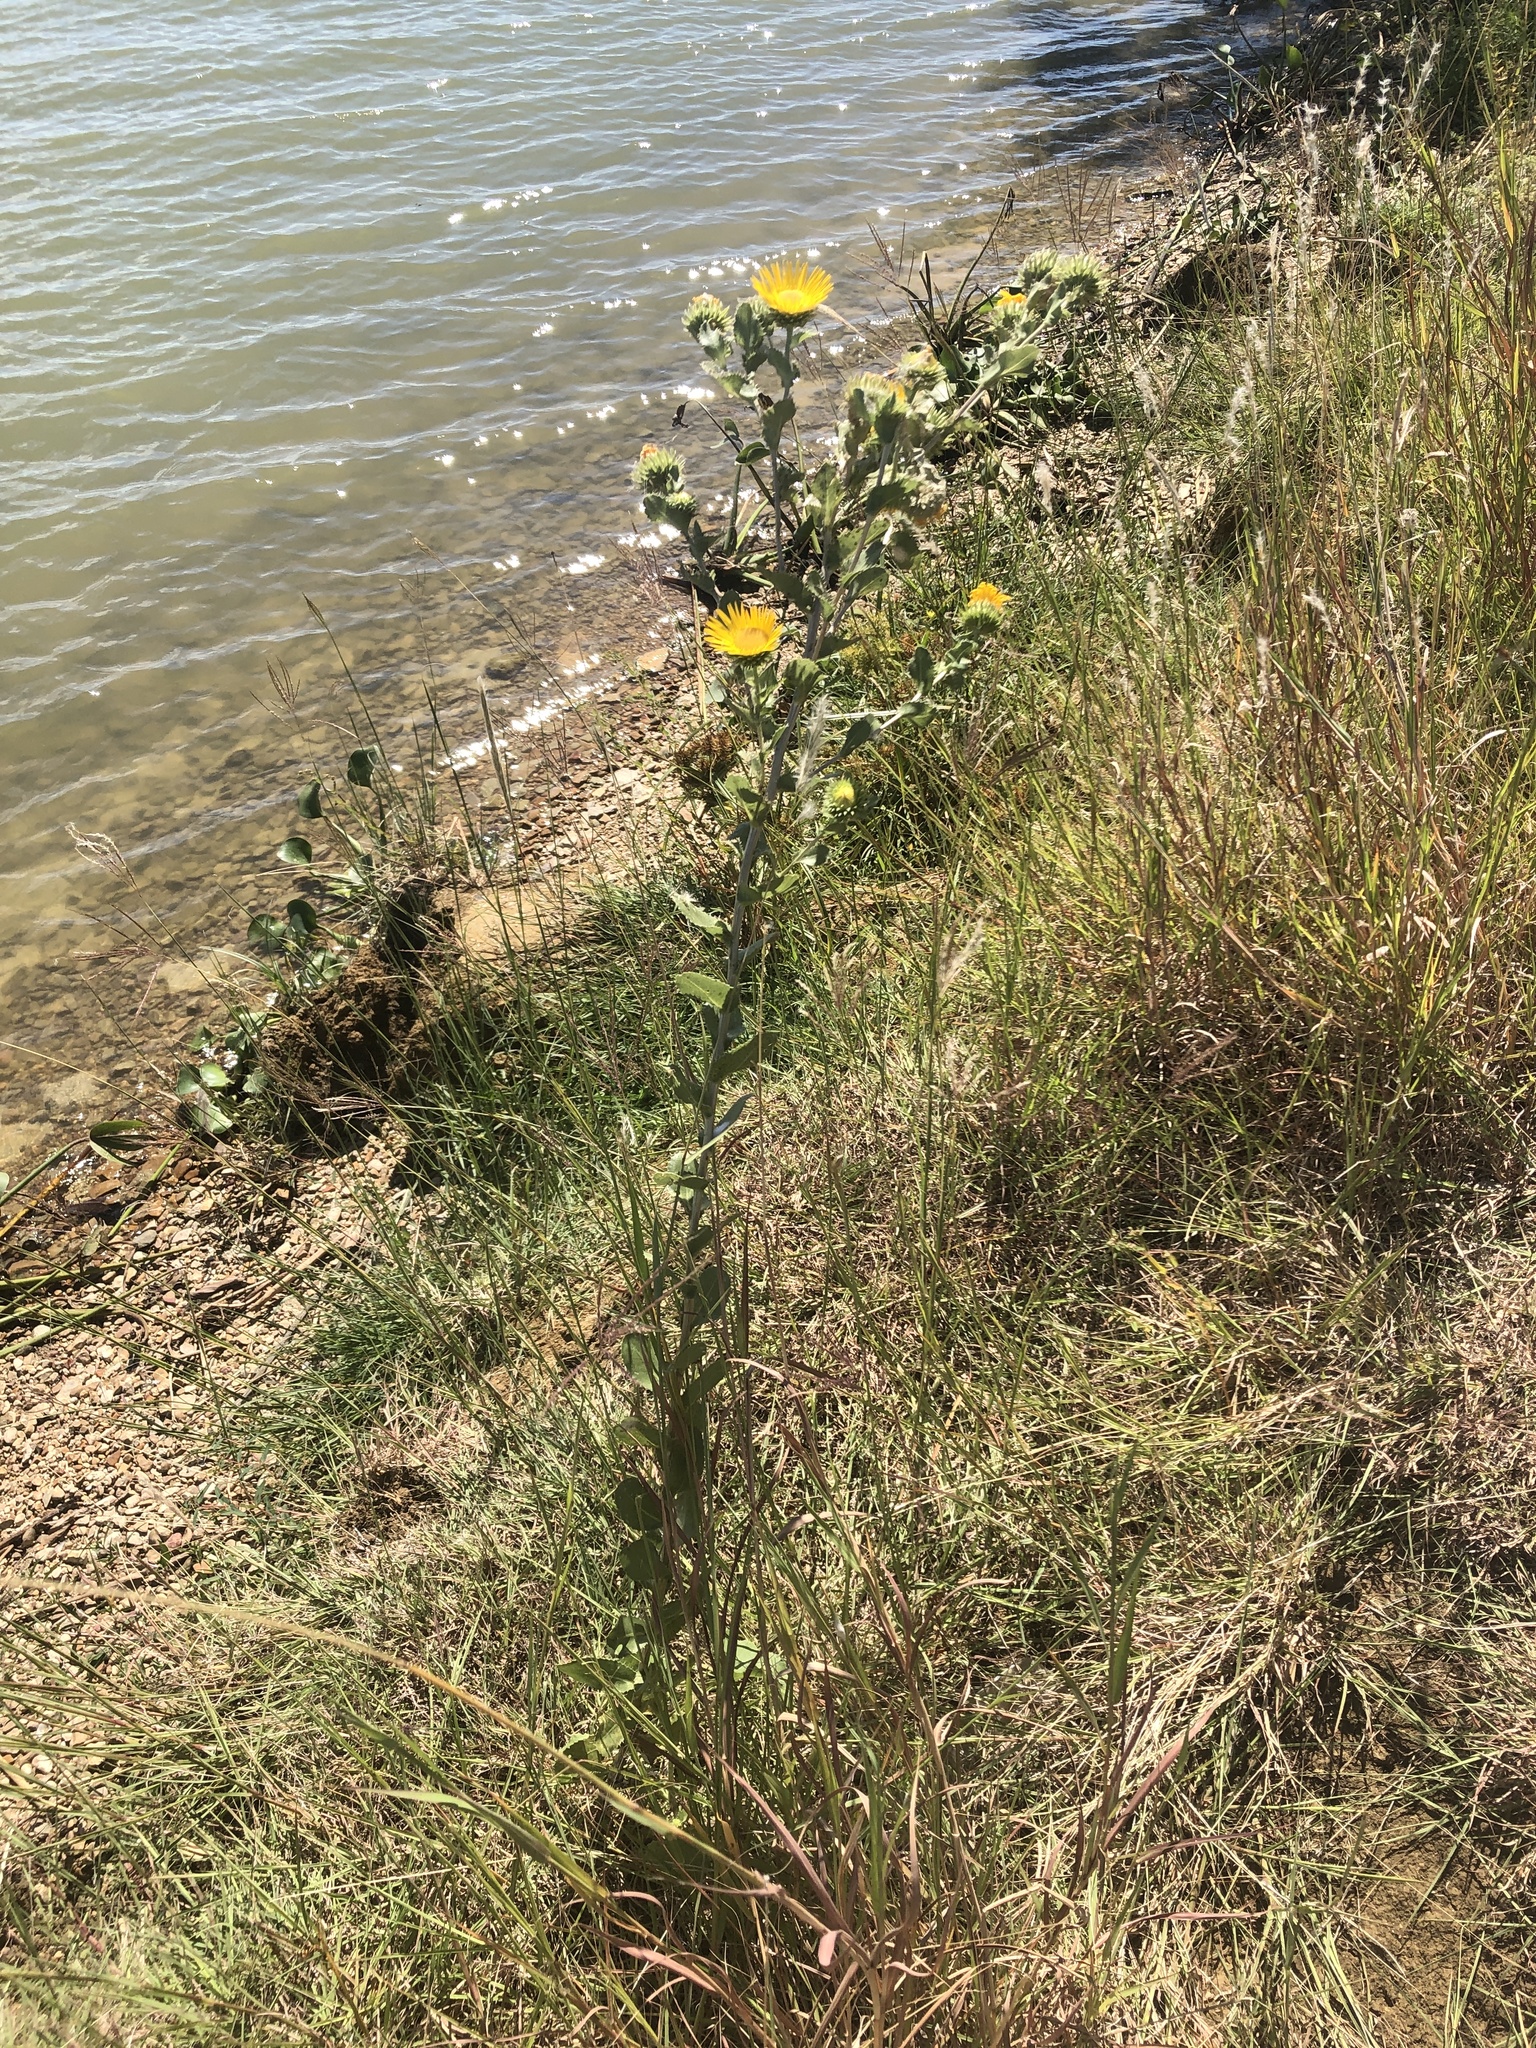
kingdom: Plantae
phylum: Tracheophyta
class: Magnoliopsida
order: Asterales
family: Asteraceae
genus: Grindelia
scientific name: Grindelia ciliata
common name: Goldenweed
